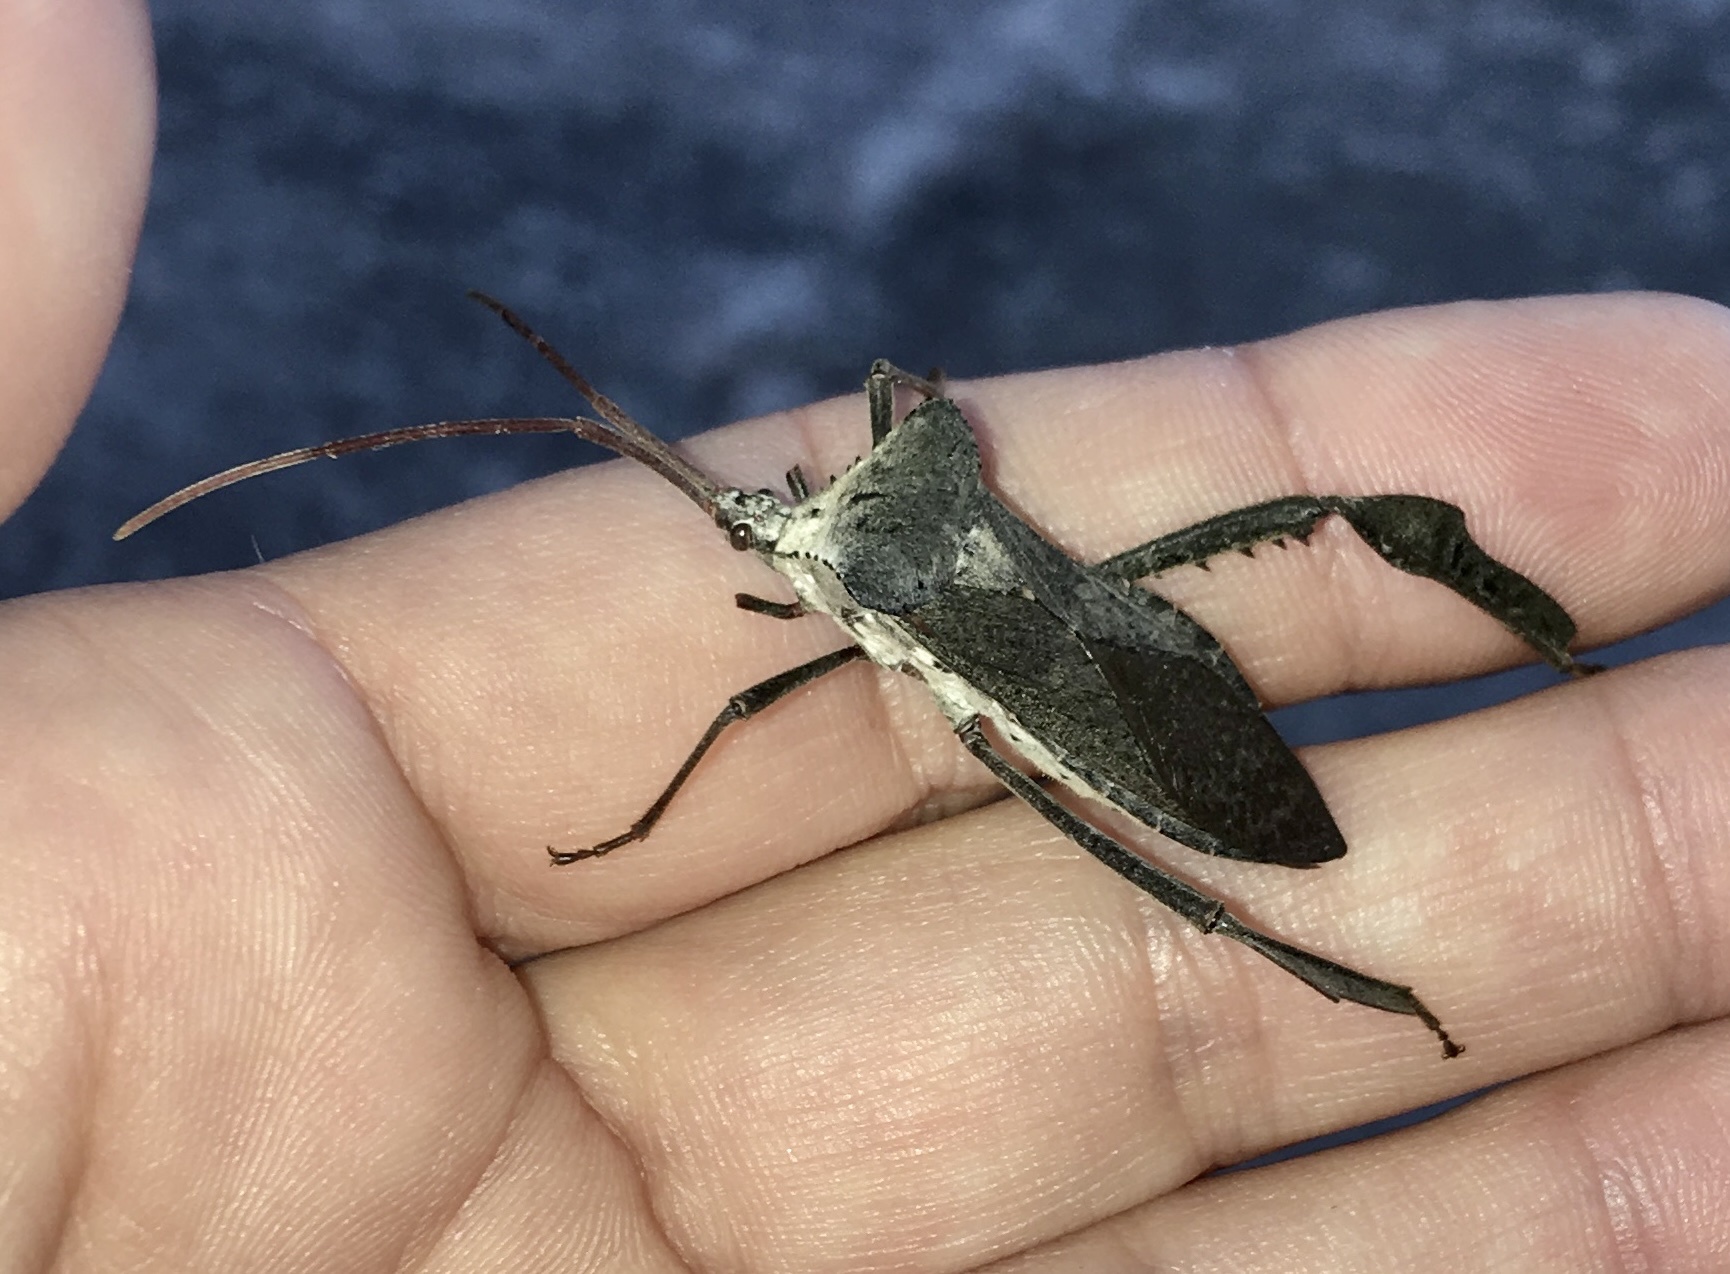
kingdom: Animalia
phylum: Arthropoda
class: Insecta
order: Hemiptera
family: Coreidae
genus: Acanthocephala
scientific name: Acanthocephala declivis
